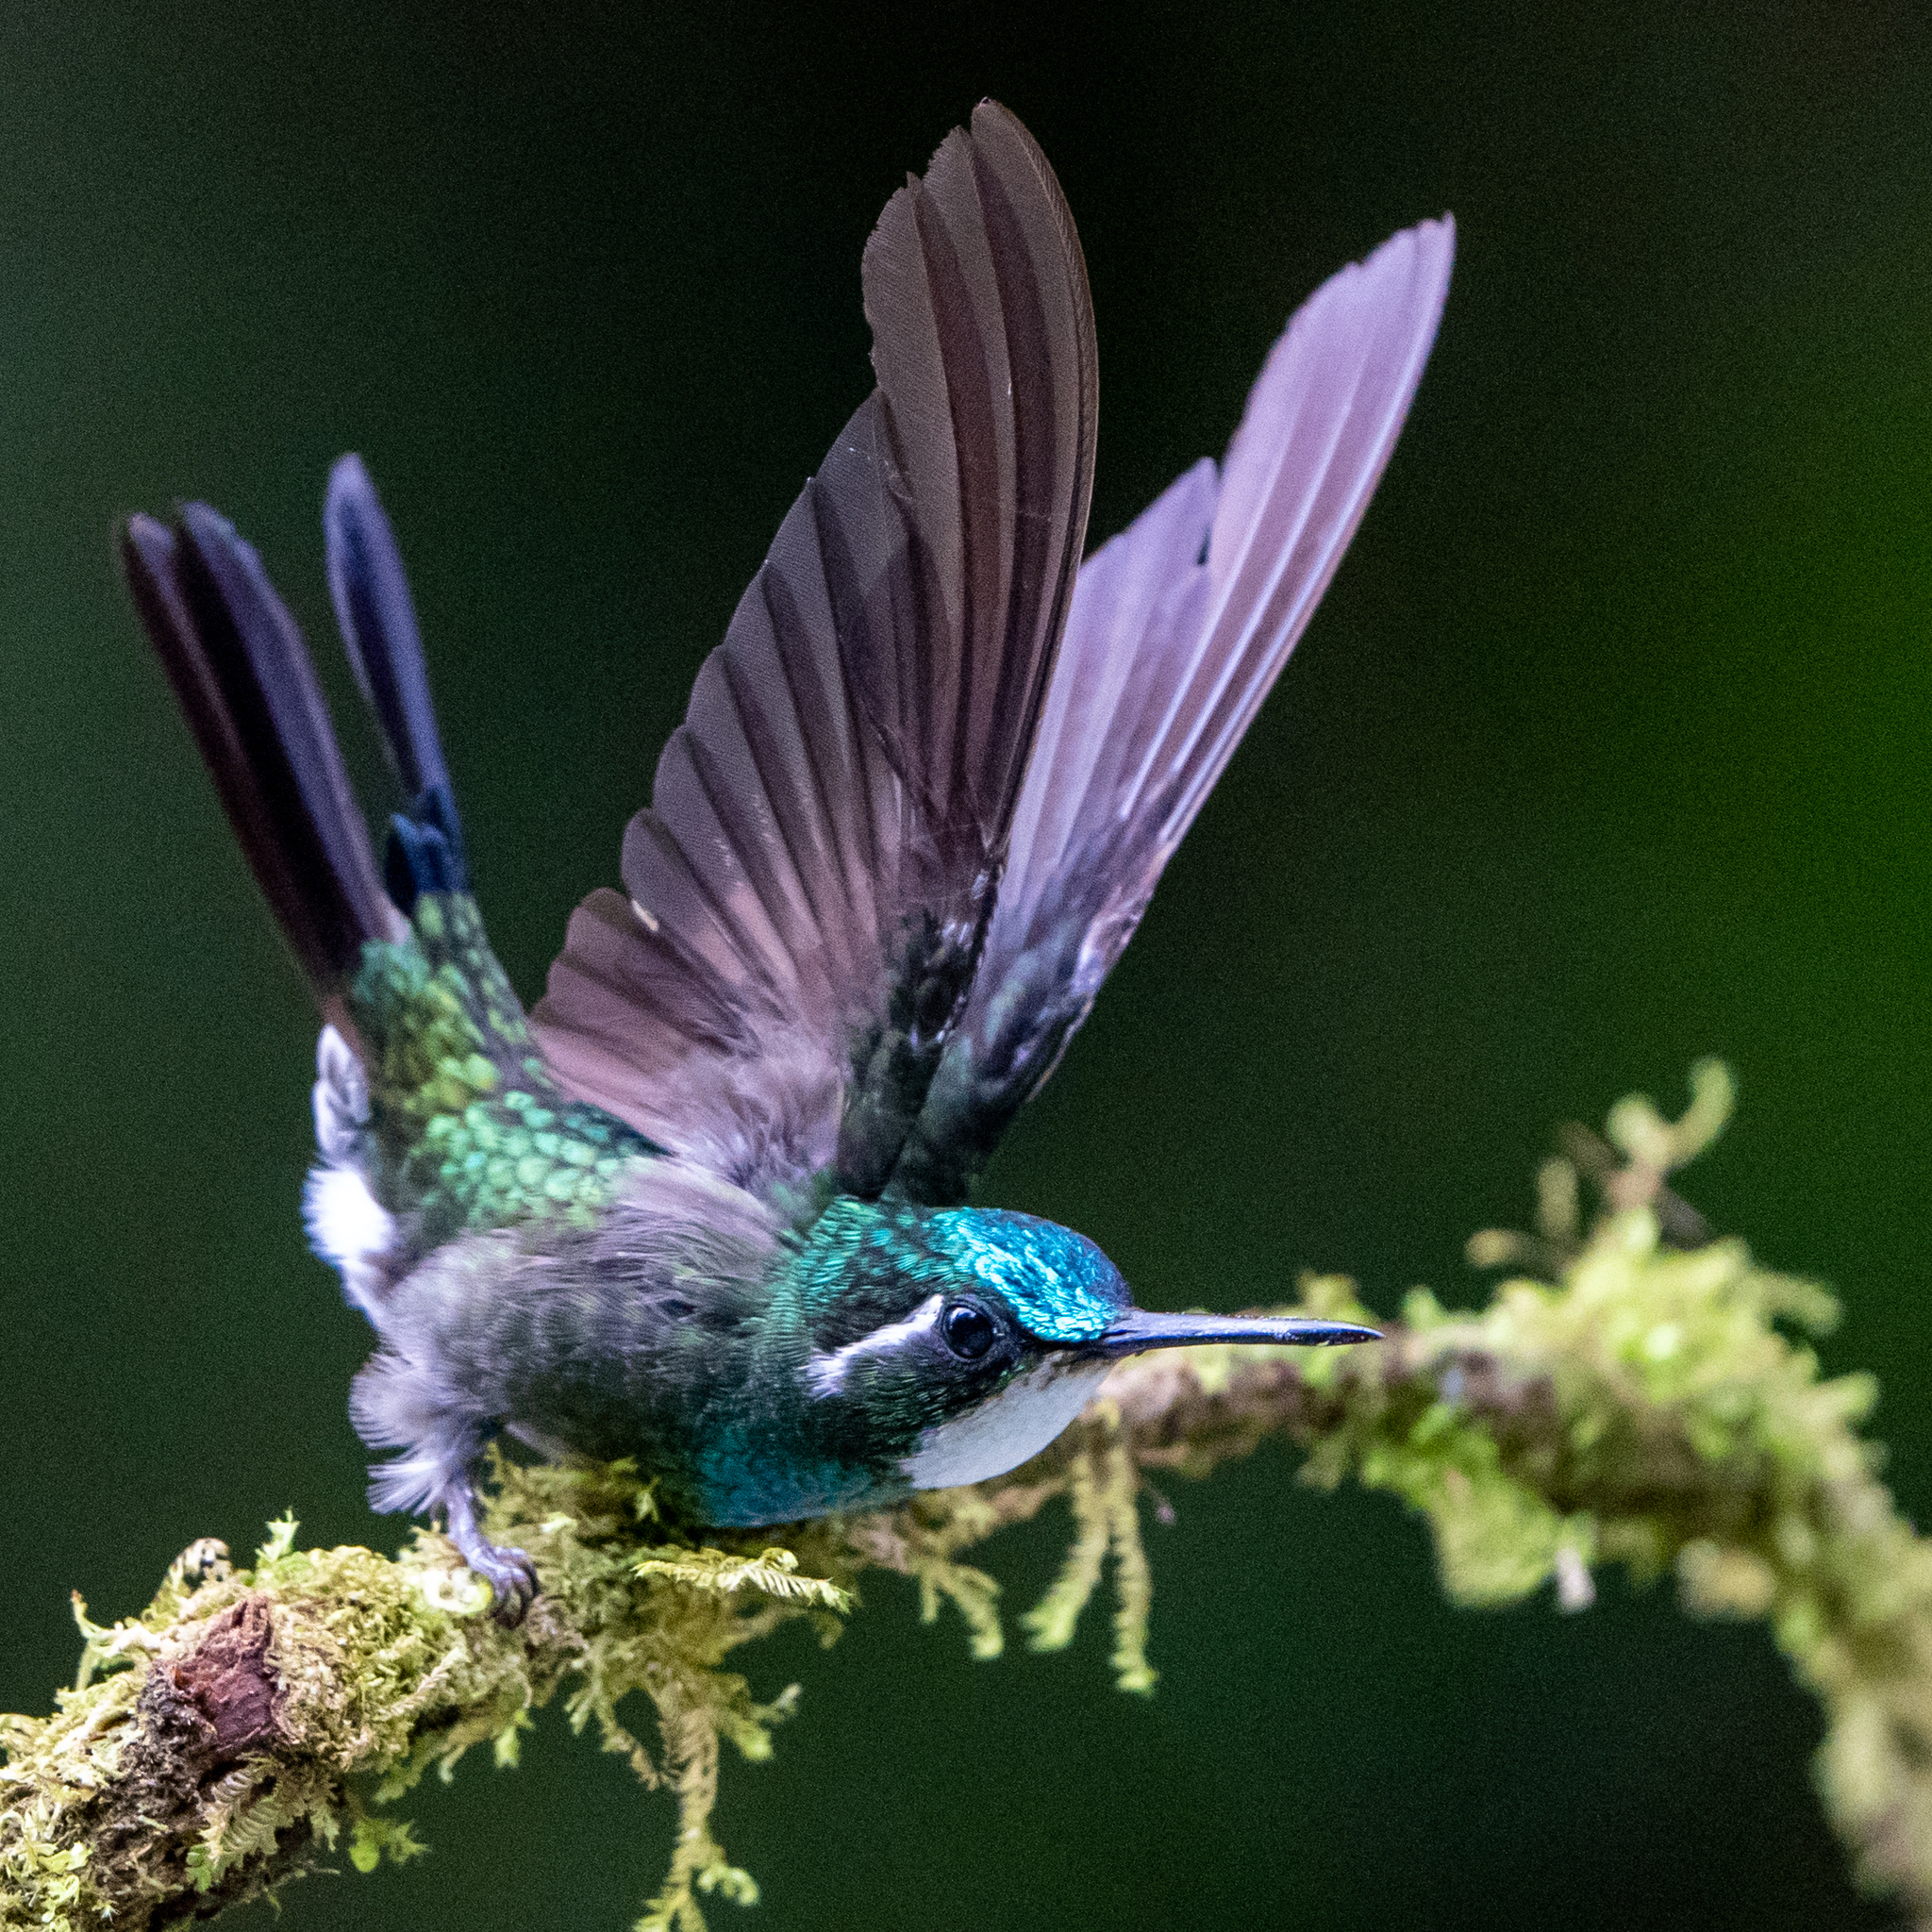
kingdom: Animalia
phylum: Chordata
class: Aves
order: Apodiformes
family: Trochilidae
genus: Lampornis
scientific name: Lampornis castaneoventris
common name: White-throated mountain-gem
